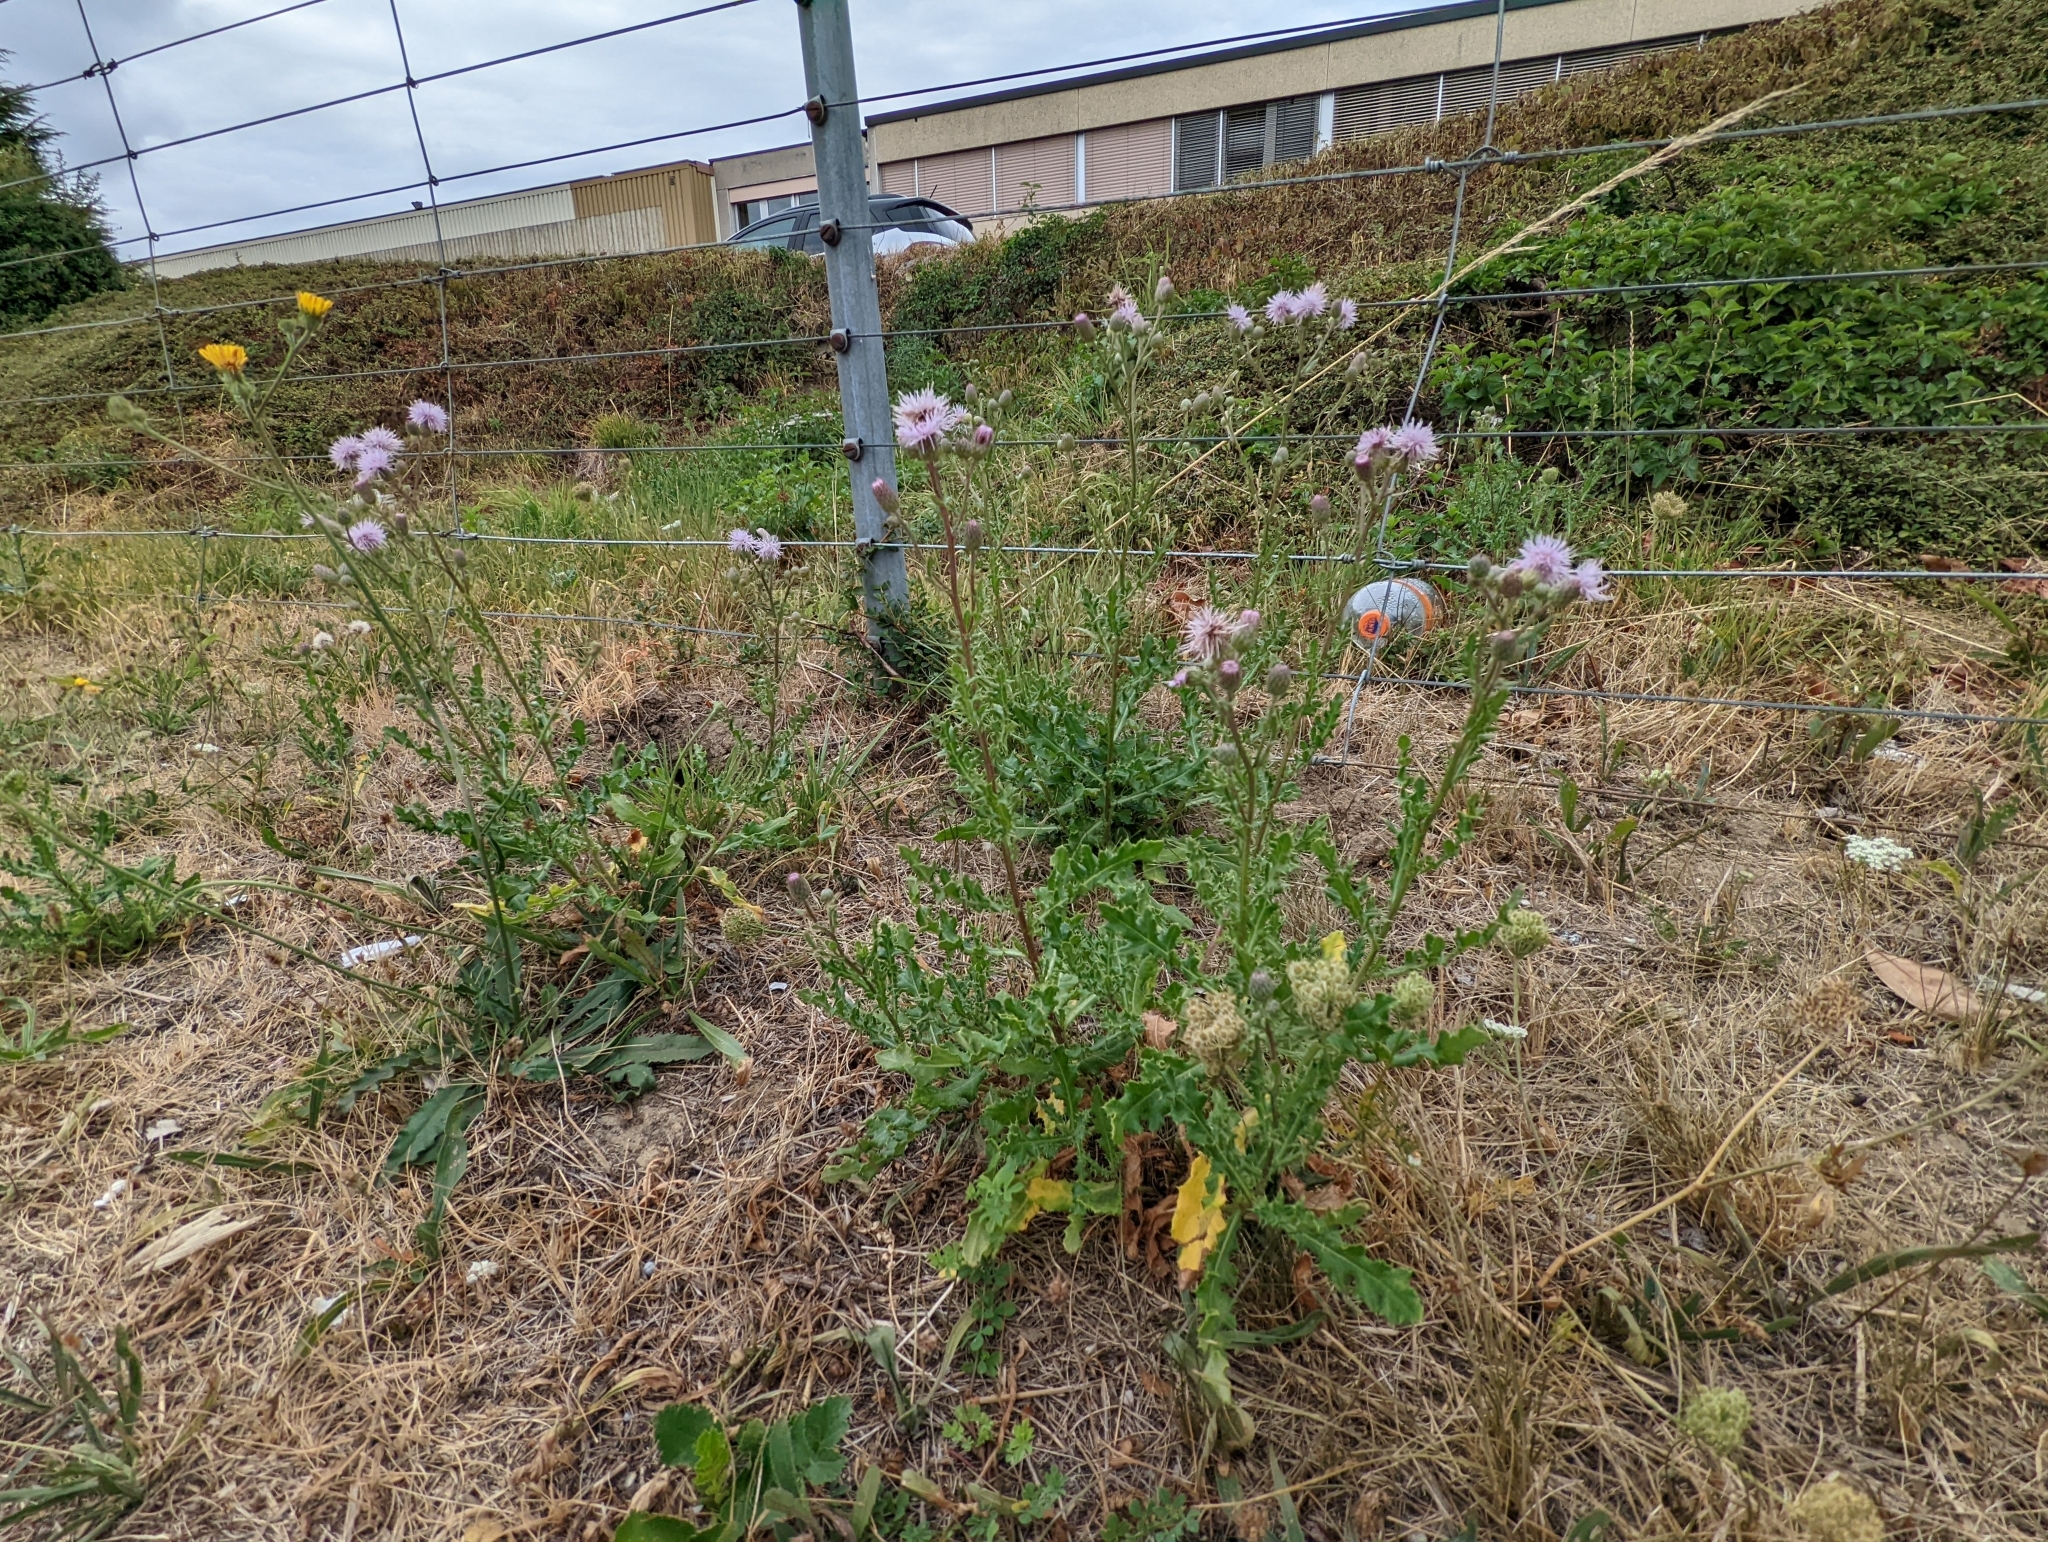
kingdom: Plantae
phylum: Tracheophyta
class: Magnoliopsida
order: Asterales
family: Asteraceae
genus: Cirsium
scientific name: Cirsium arvense
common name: Creeping thistle
